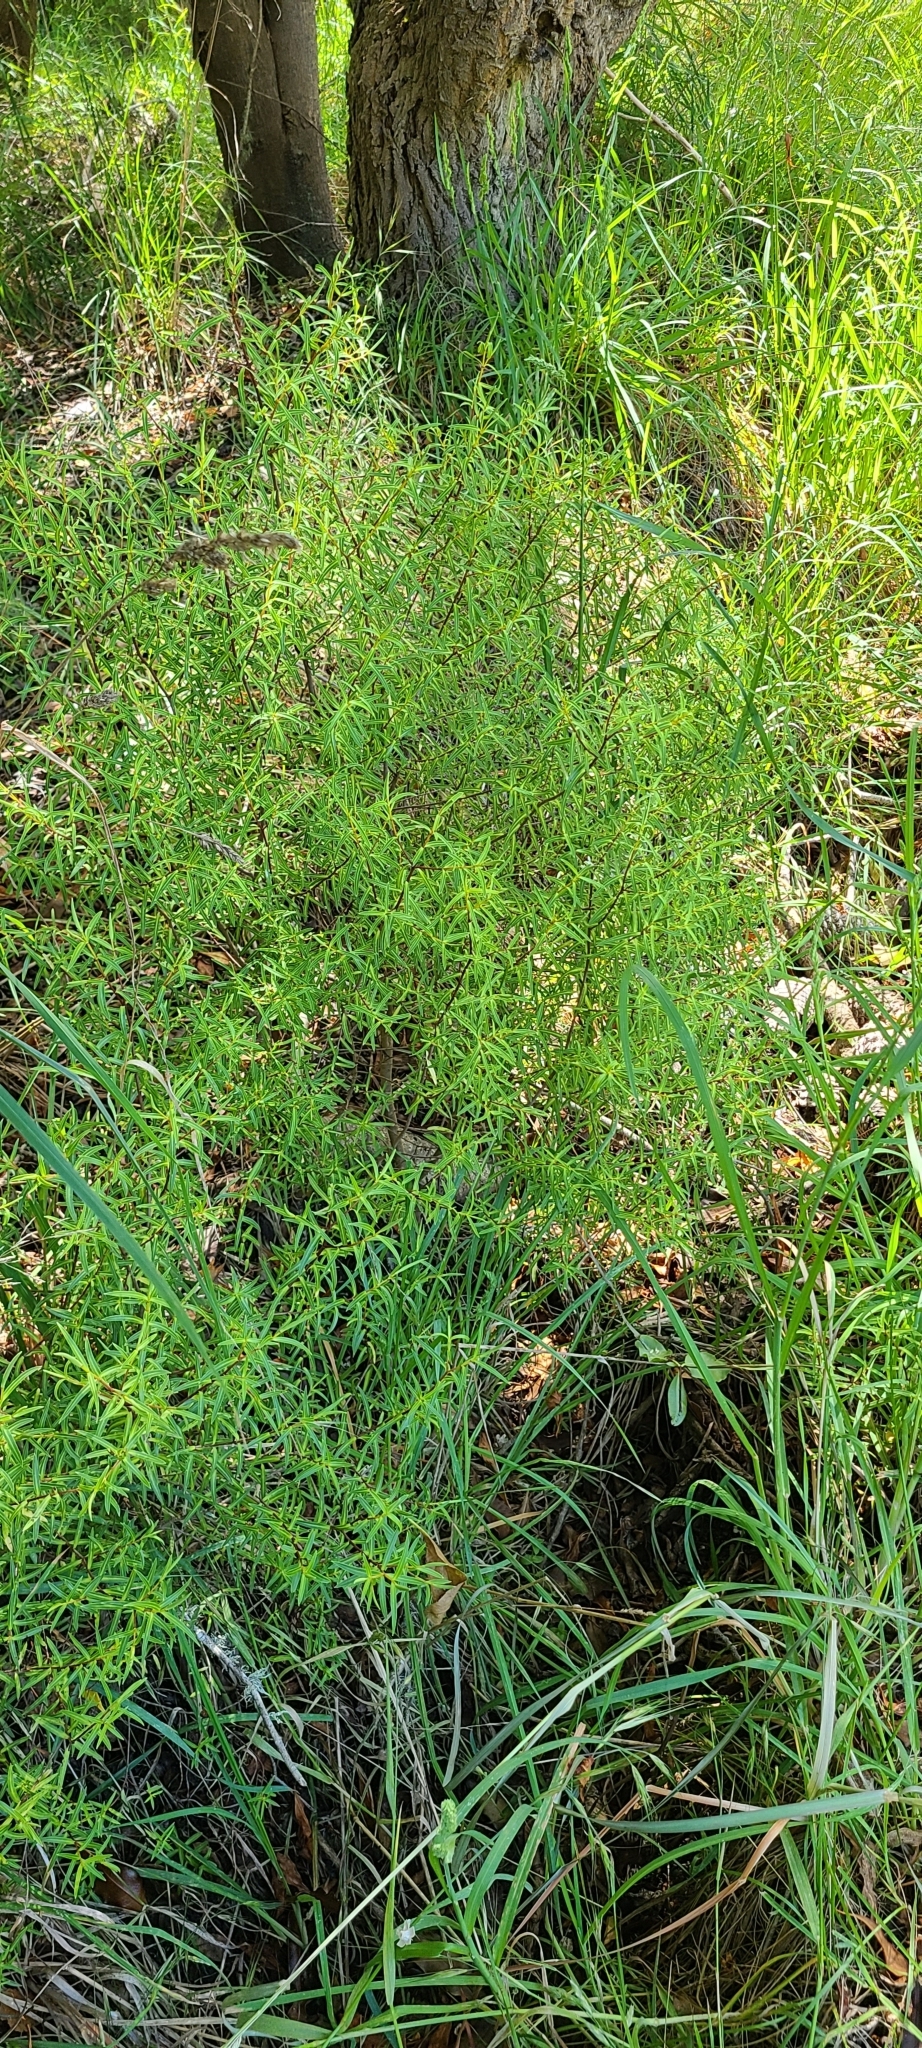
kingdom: Plantae
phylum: Tracheophyta
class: Magnoliopsida
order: Lamiales
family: Plantaginaceae
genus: Veronica
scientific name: Veronica strictissima
